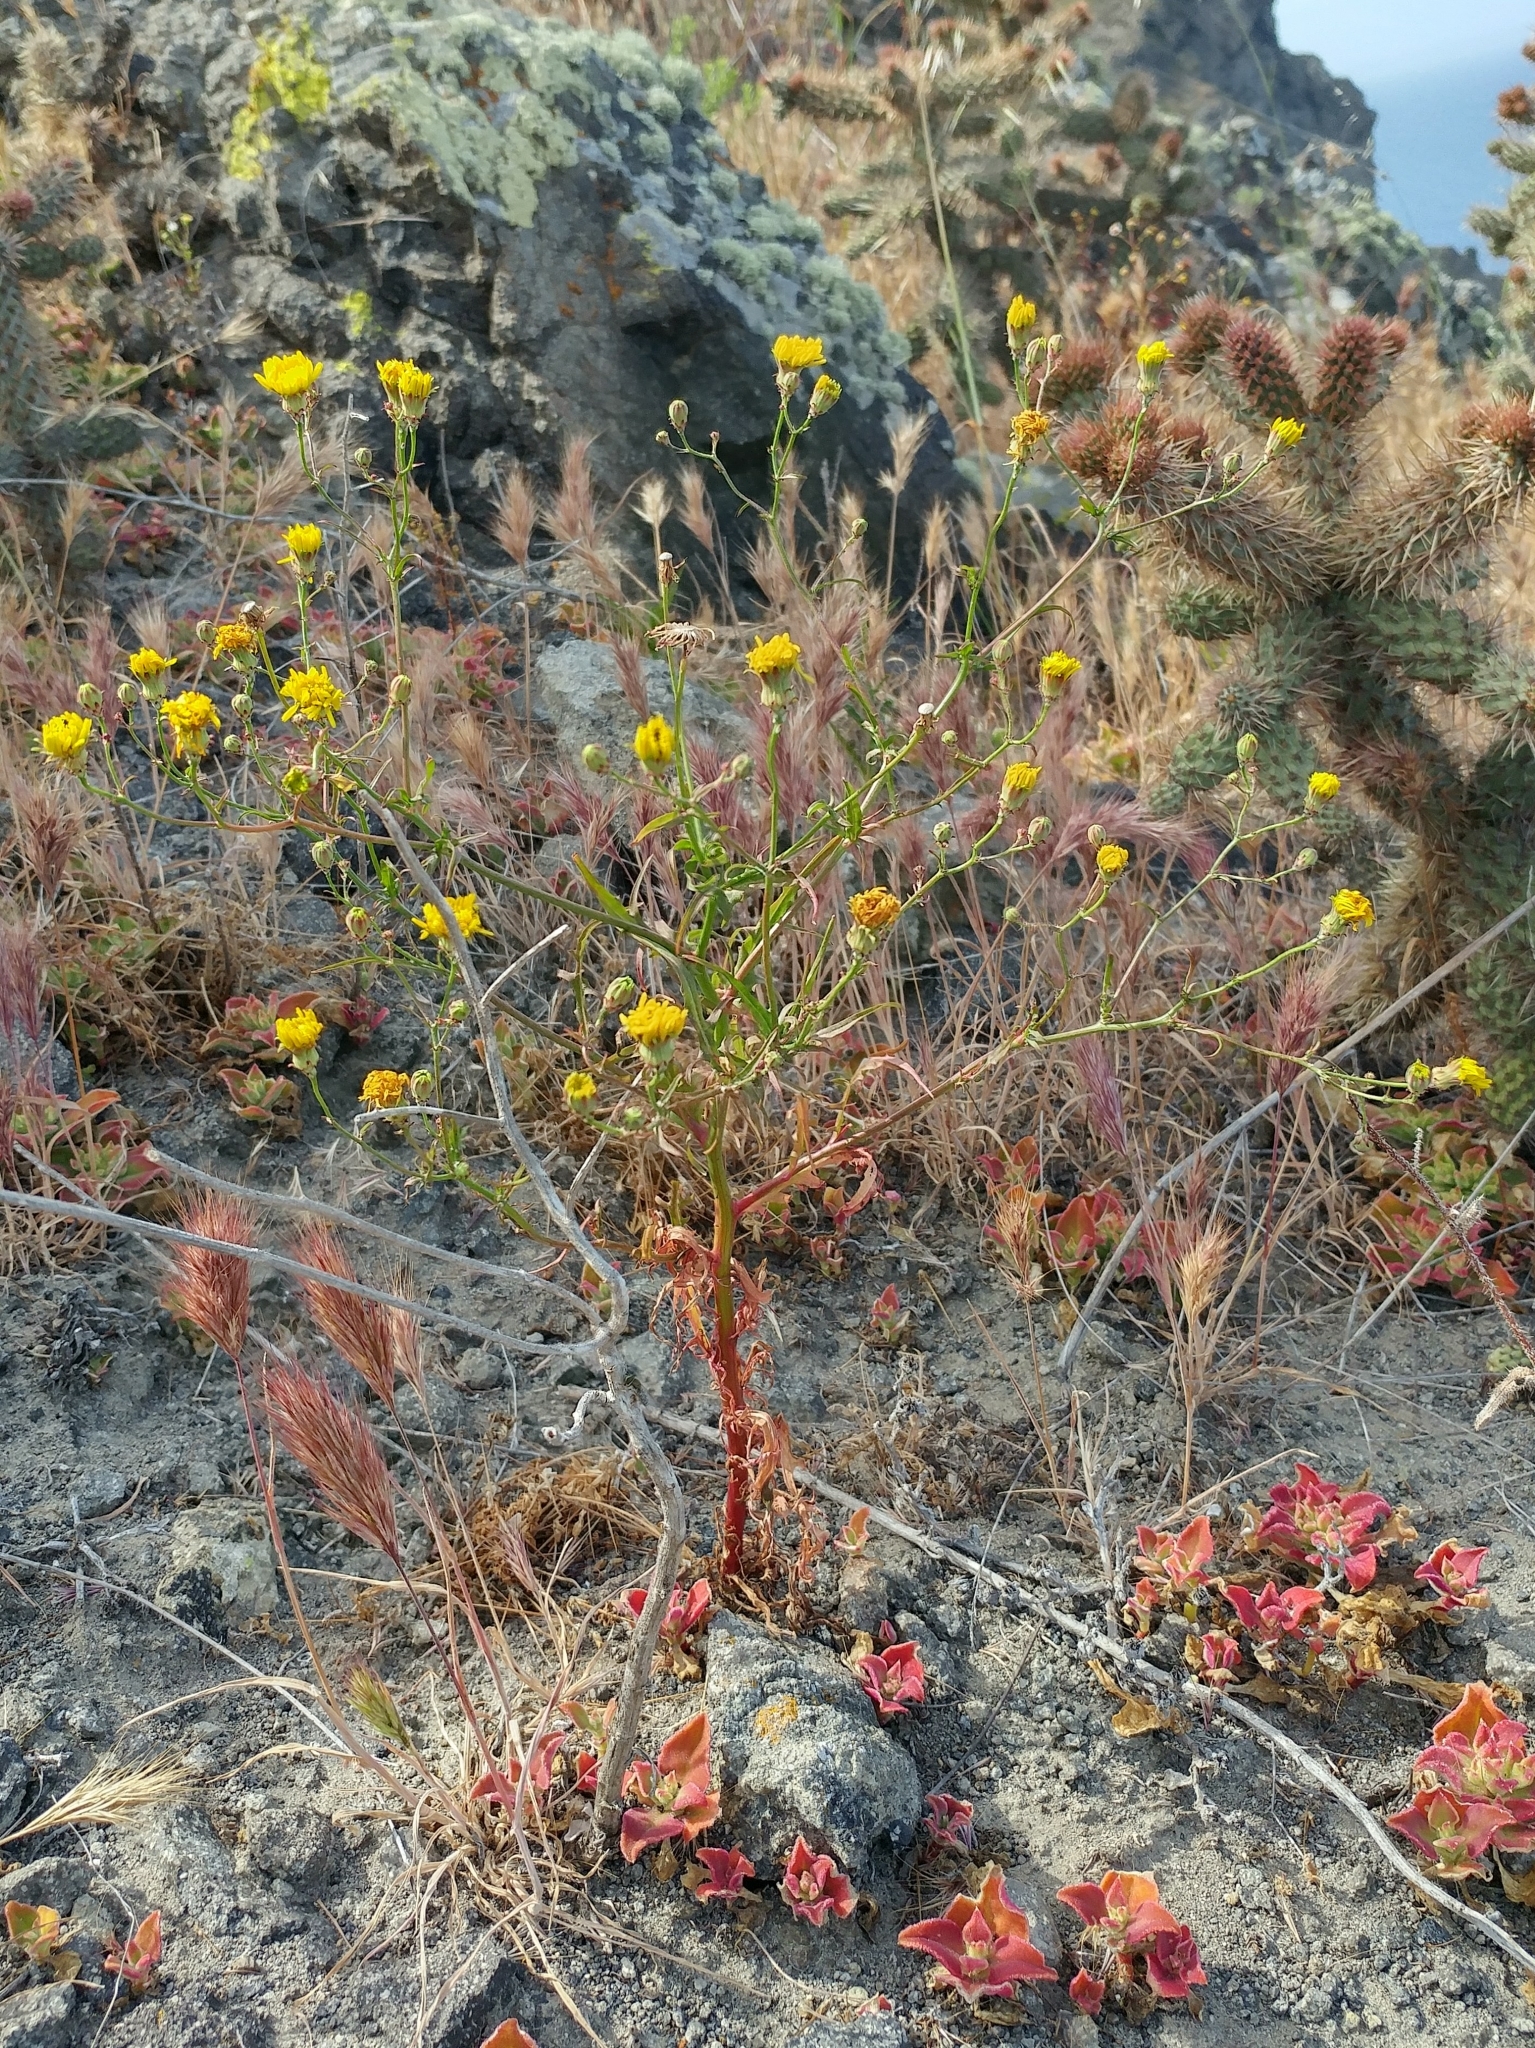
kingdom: Plantae
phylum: Tracheophyta
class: Magnoliopsida
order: Asterales
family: Asteraceae
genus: Malacothrix
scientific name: Malacothrix foliosa
